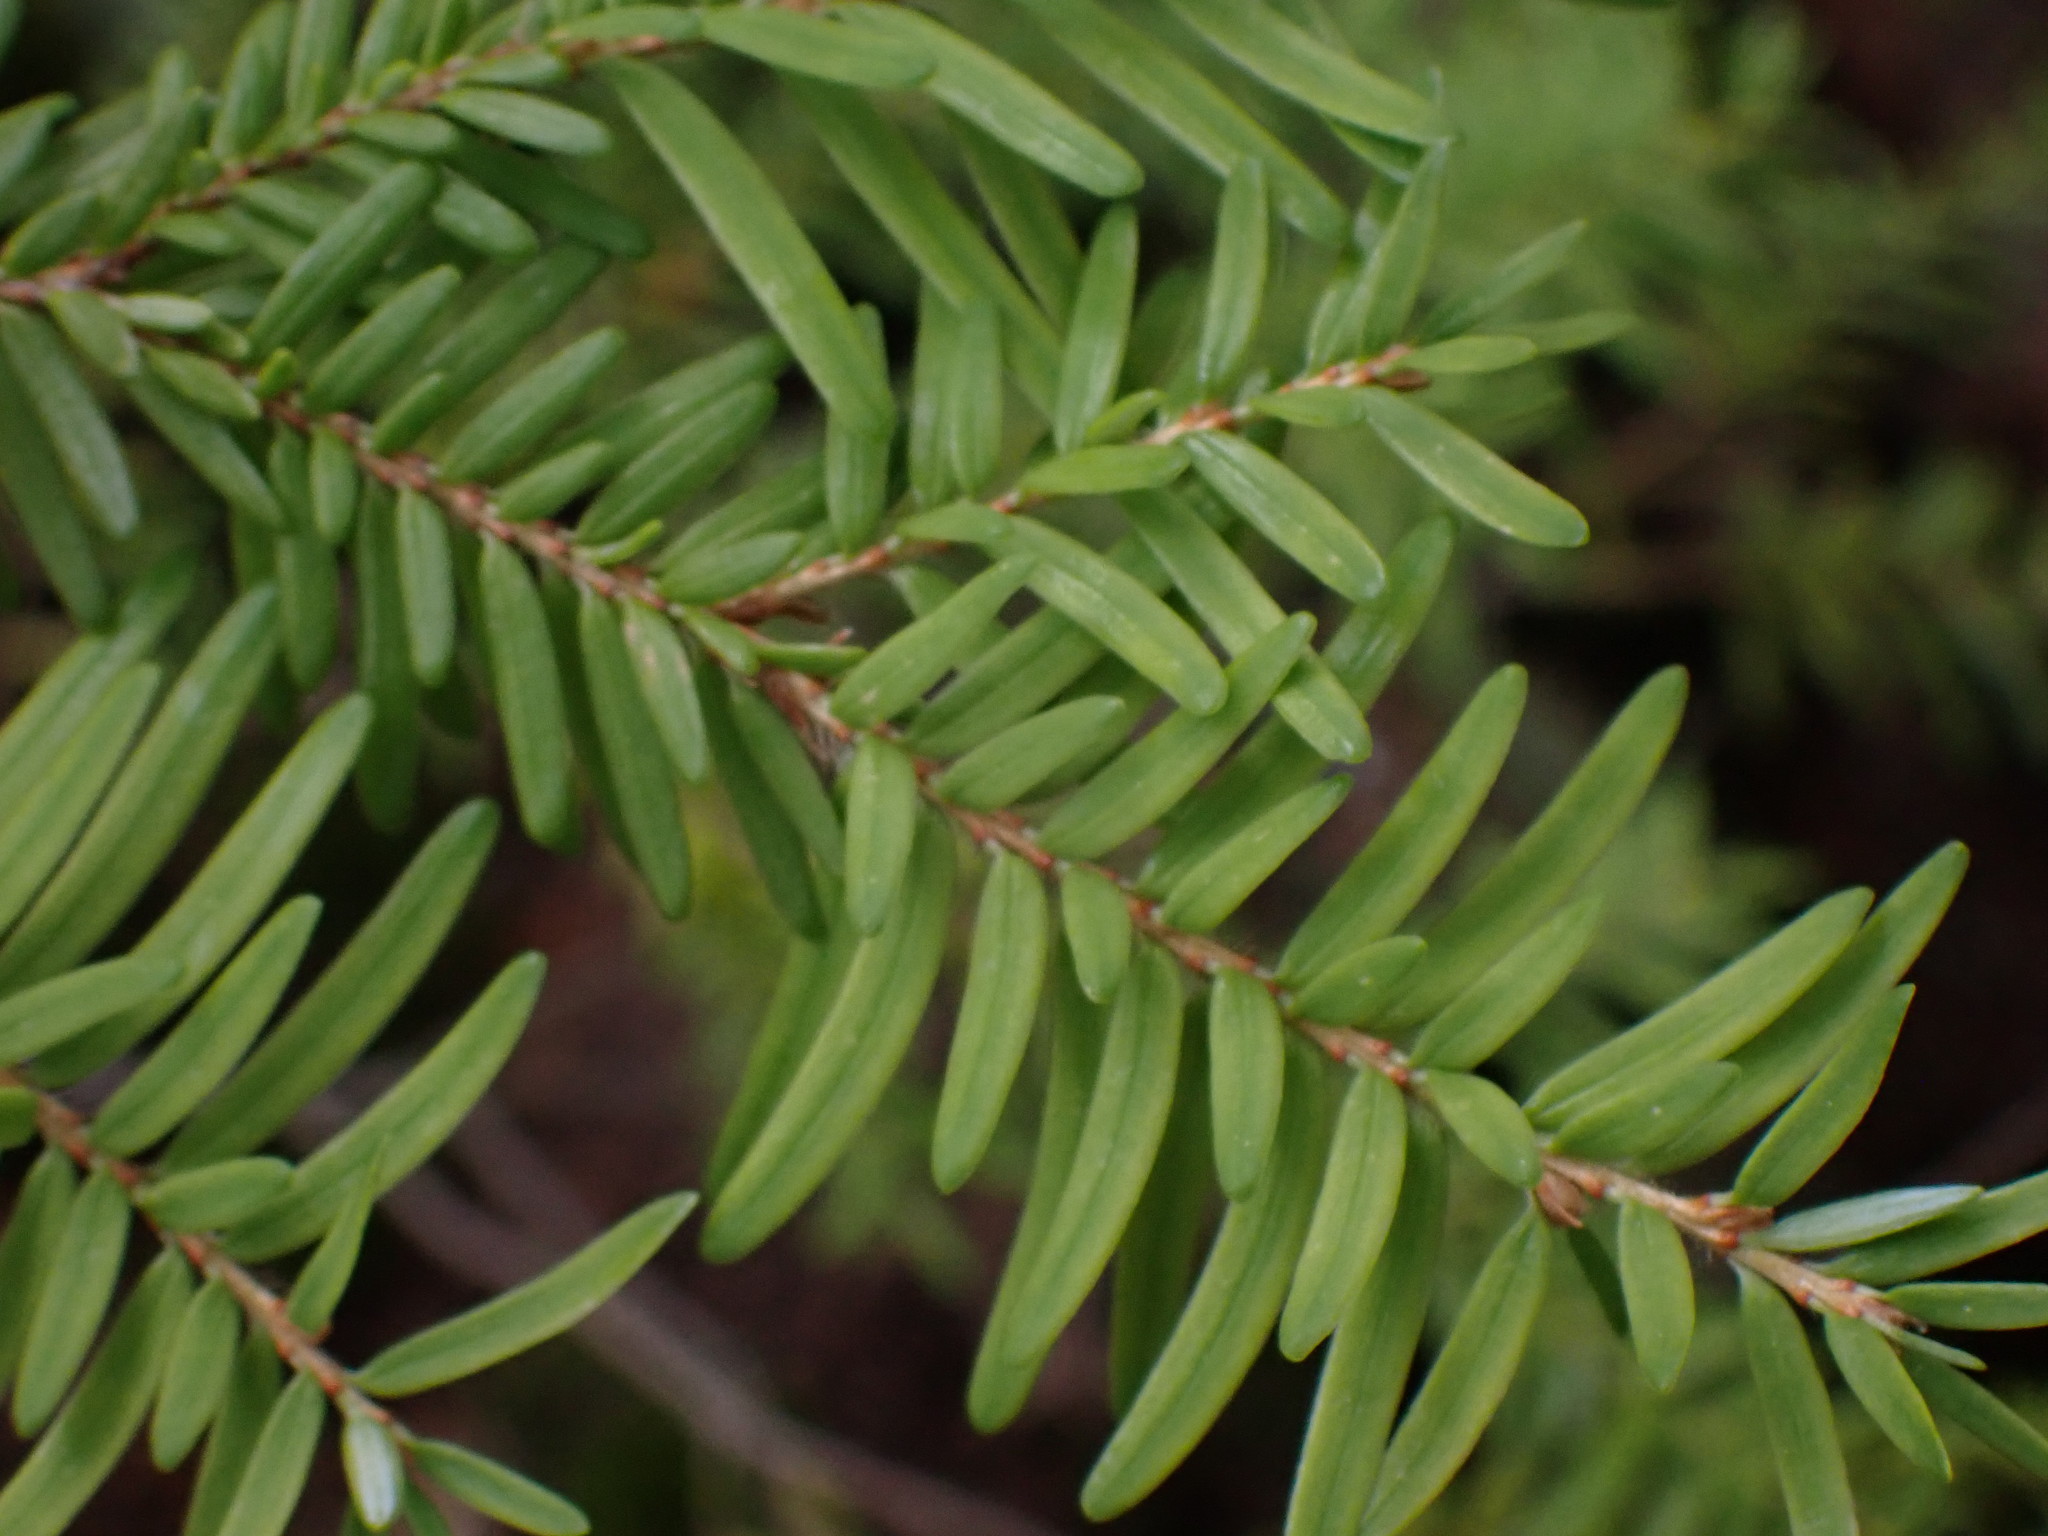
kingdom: Plantae
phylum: Tracheophyta
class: Pinopsida
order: Pinales
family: Pinaceae
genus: Tsuga
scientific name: Tsuga heterophylla
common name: Western hemlock
